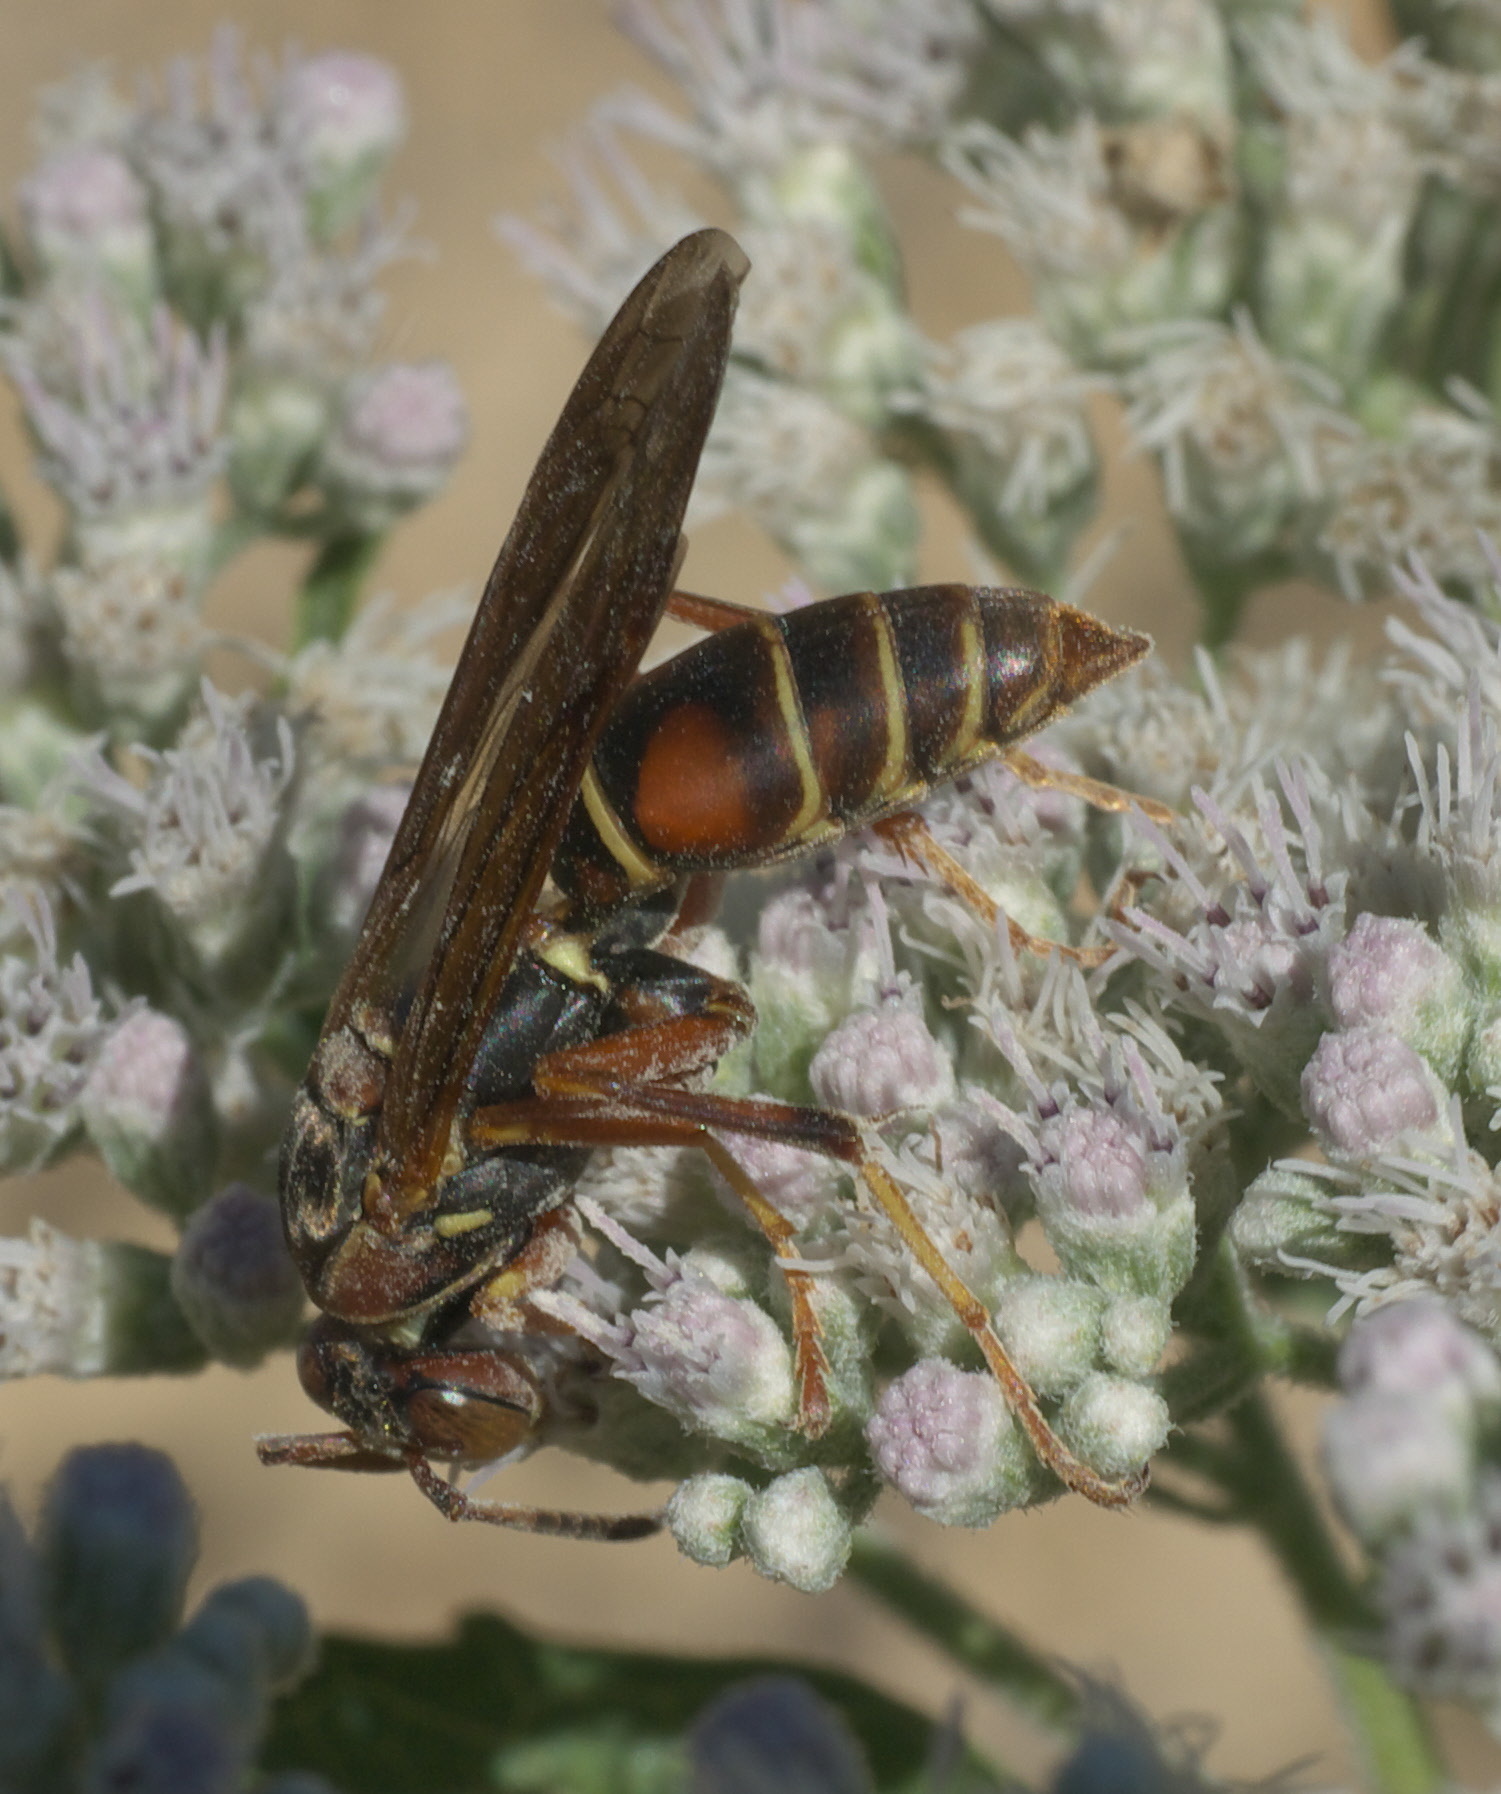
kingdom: Animalia
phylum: Arthropoda
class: Insecta
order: Hymenoptera
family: Eumenidae
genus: Polistes
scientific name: Polistes fuscatus
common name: Dark paper wasp
